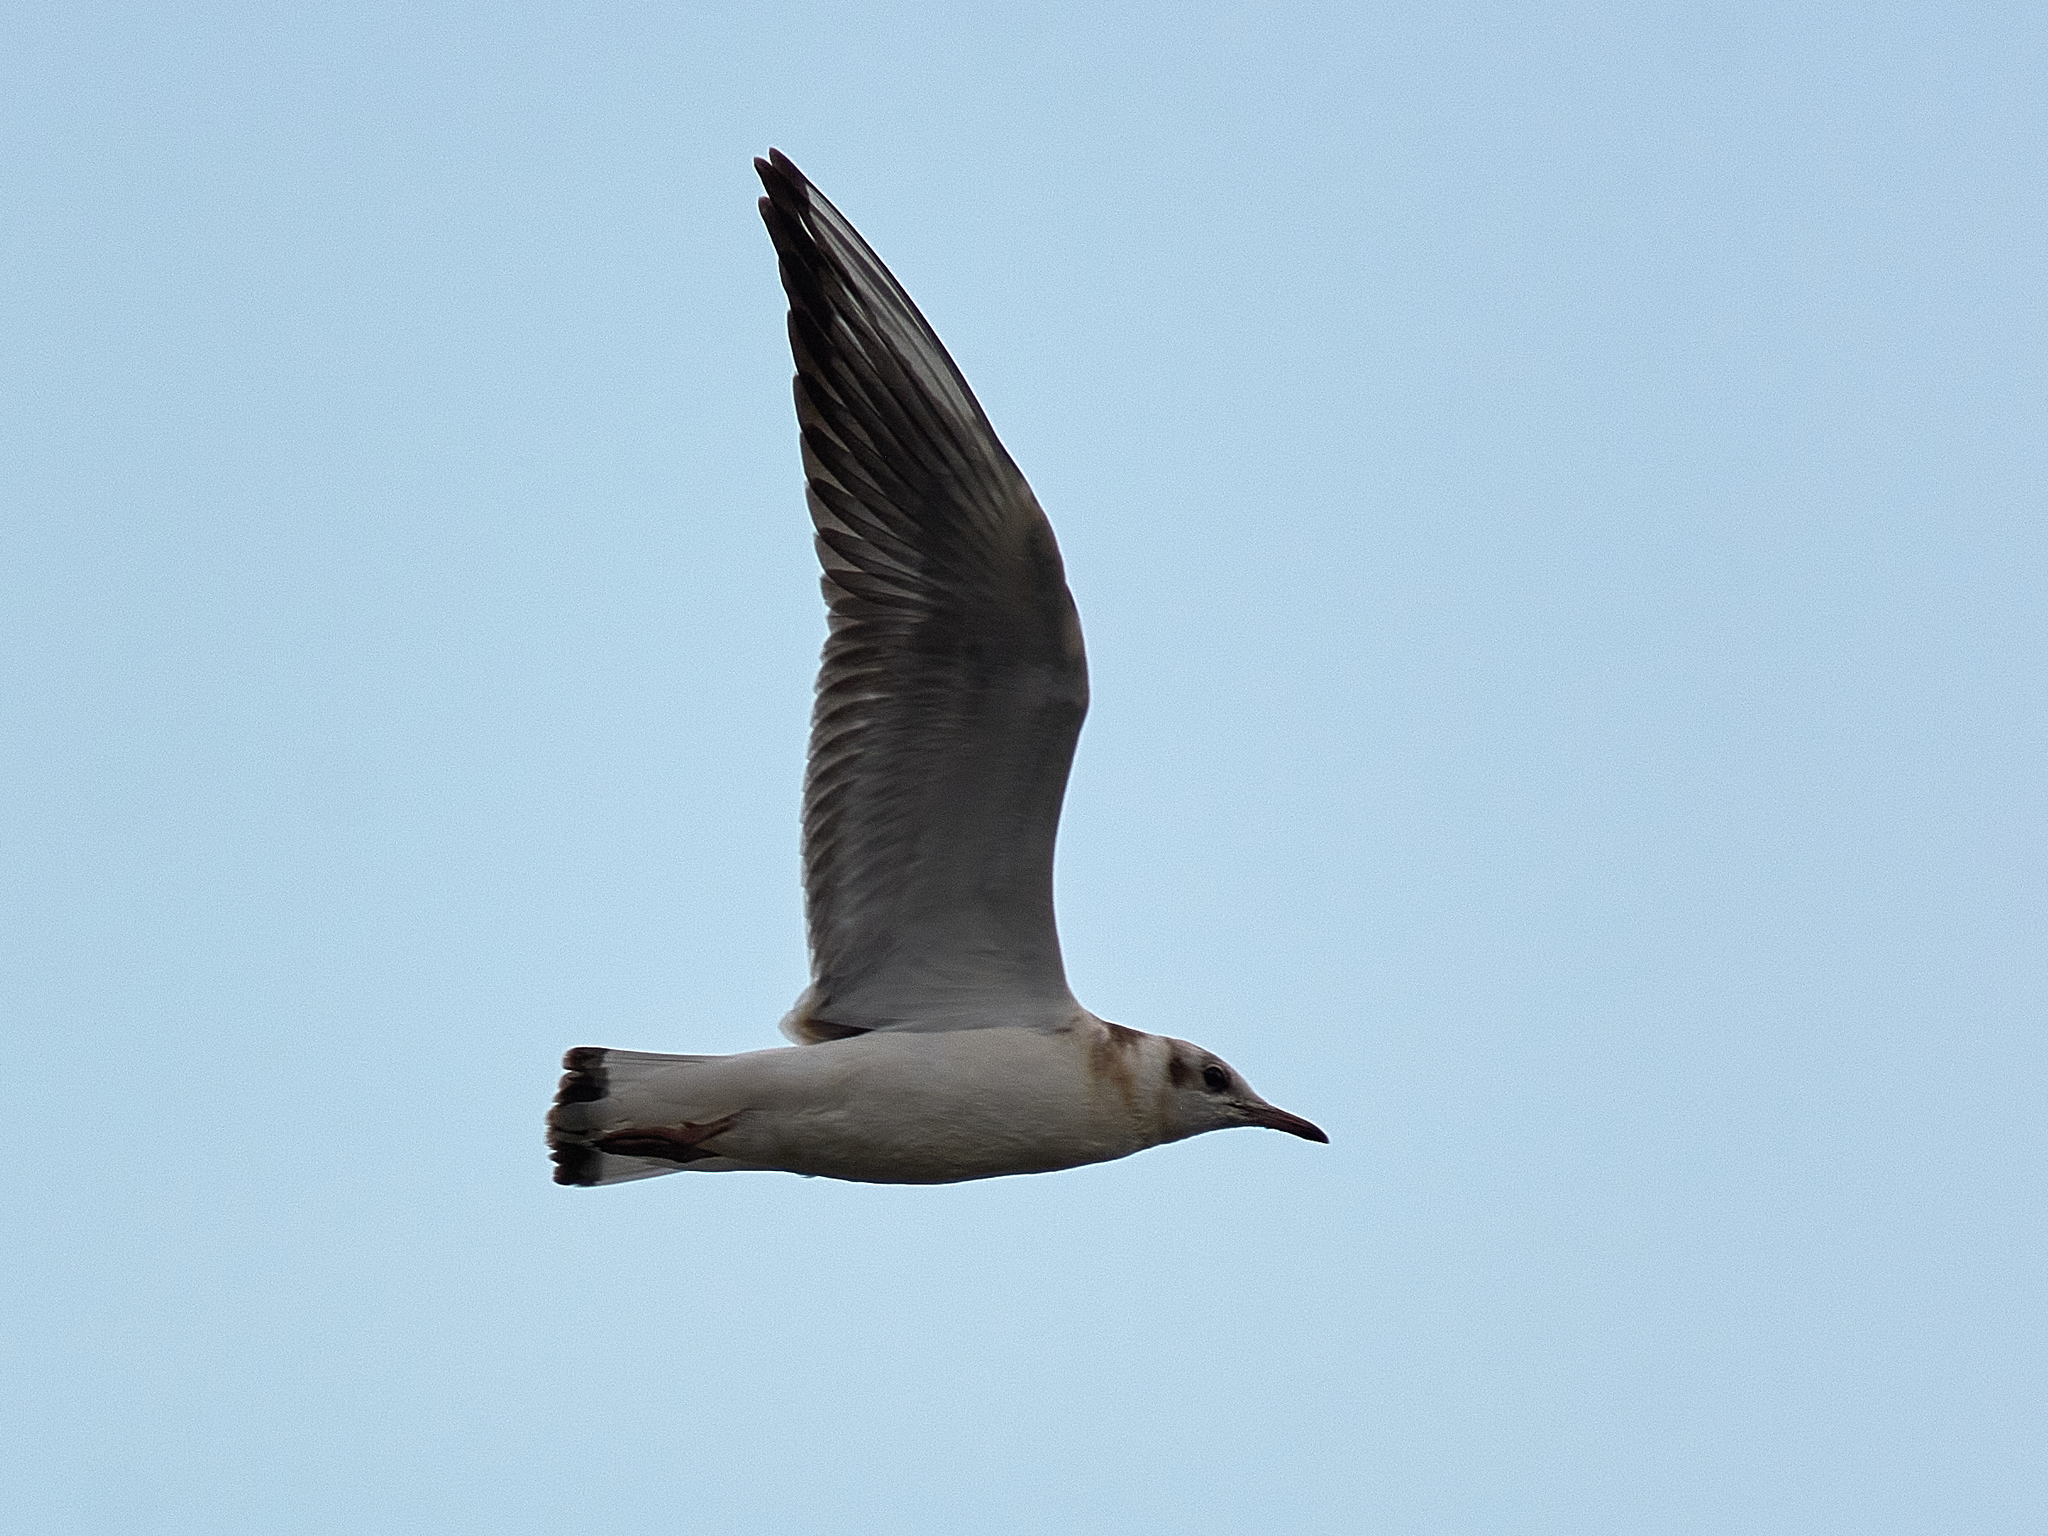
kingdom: Animalia
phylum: Chordata
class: Aves
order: Charadriiformes
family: Laridae
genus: Chroicocephalus
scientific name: Chroicocephalus ridibundus
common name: Black-headed gull
